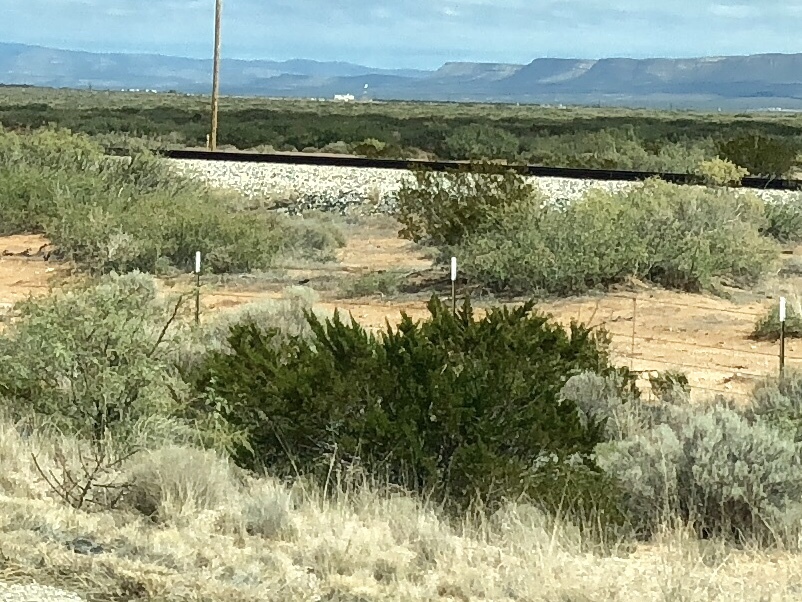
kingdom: Plantae
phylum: Tracheophyta
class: Magnoliopsida
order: Zygophyllales
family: Zygophyllaceae
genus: Larrea
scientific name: Larrea tridentata
